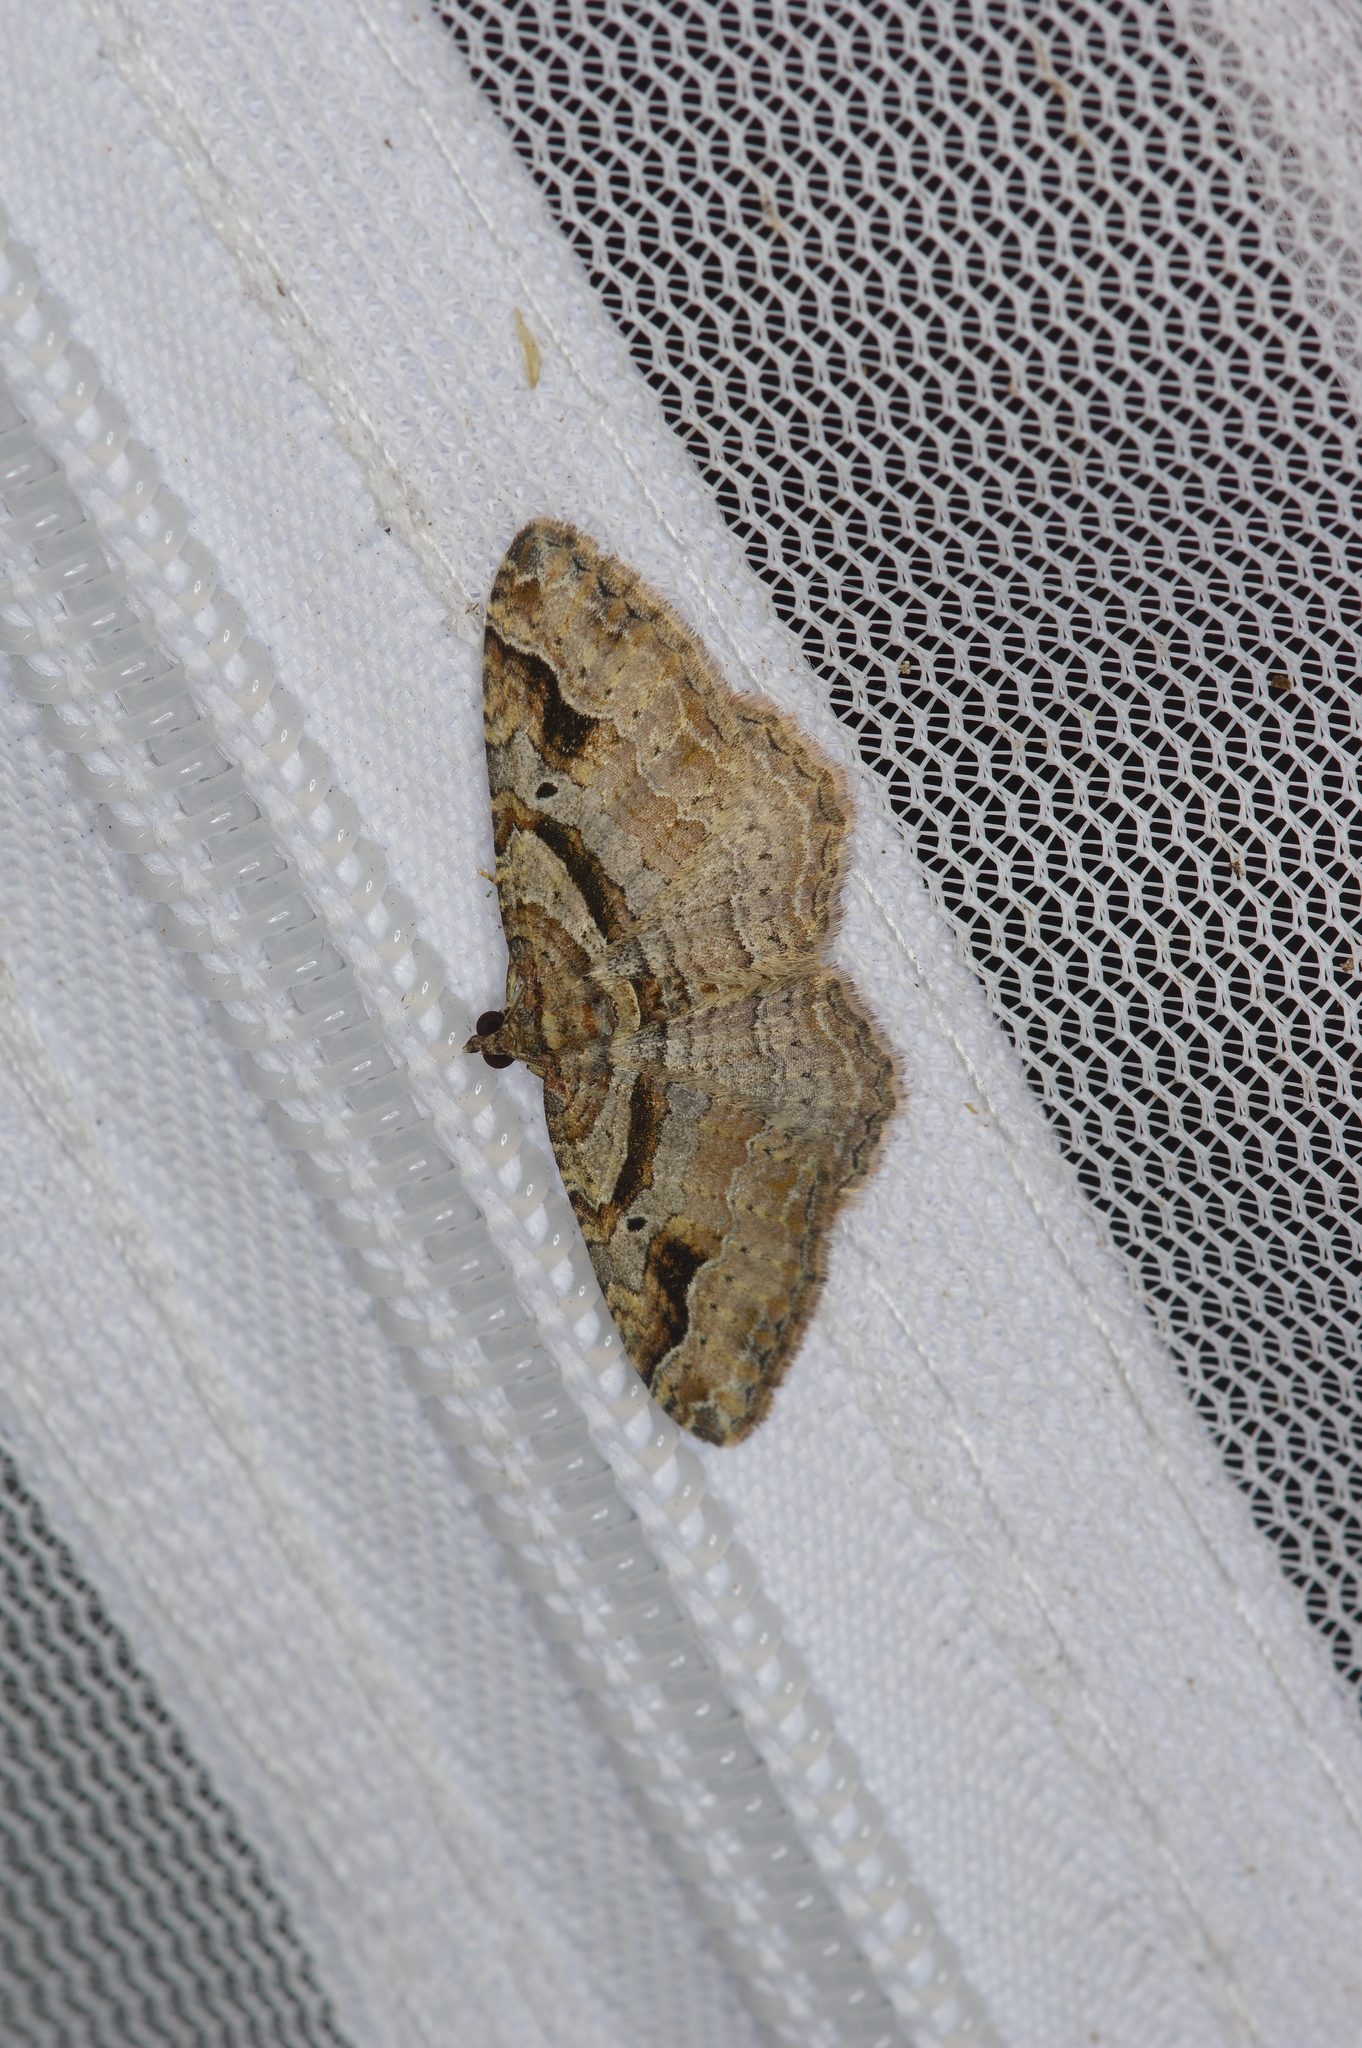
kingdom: Animalia
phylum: Arthropoda
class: Insecta
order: Lepidoptera
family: Geometridae
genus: Costaconvexa
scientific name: Costaconvexa centrostrigaria
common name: Bent-line carpet
